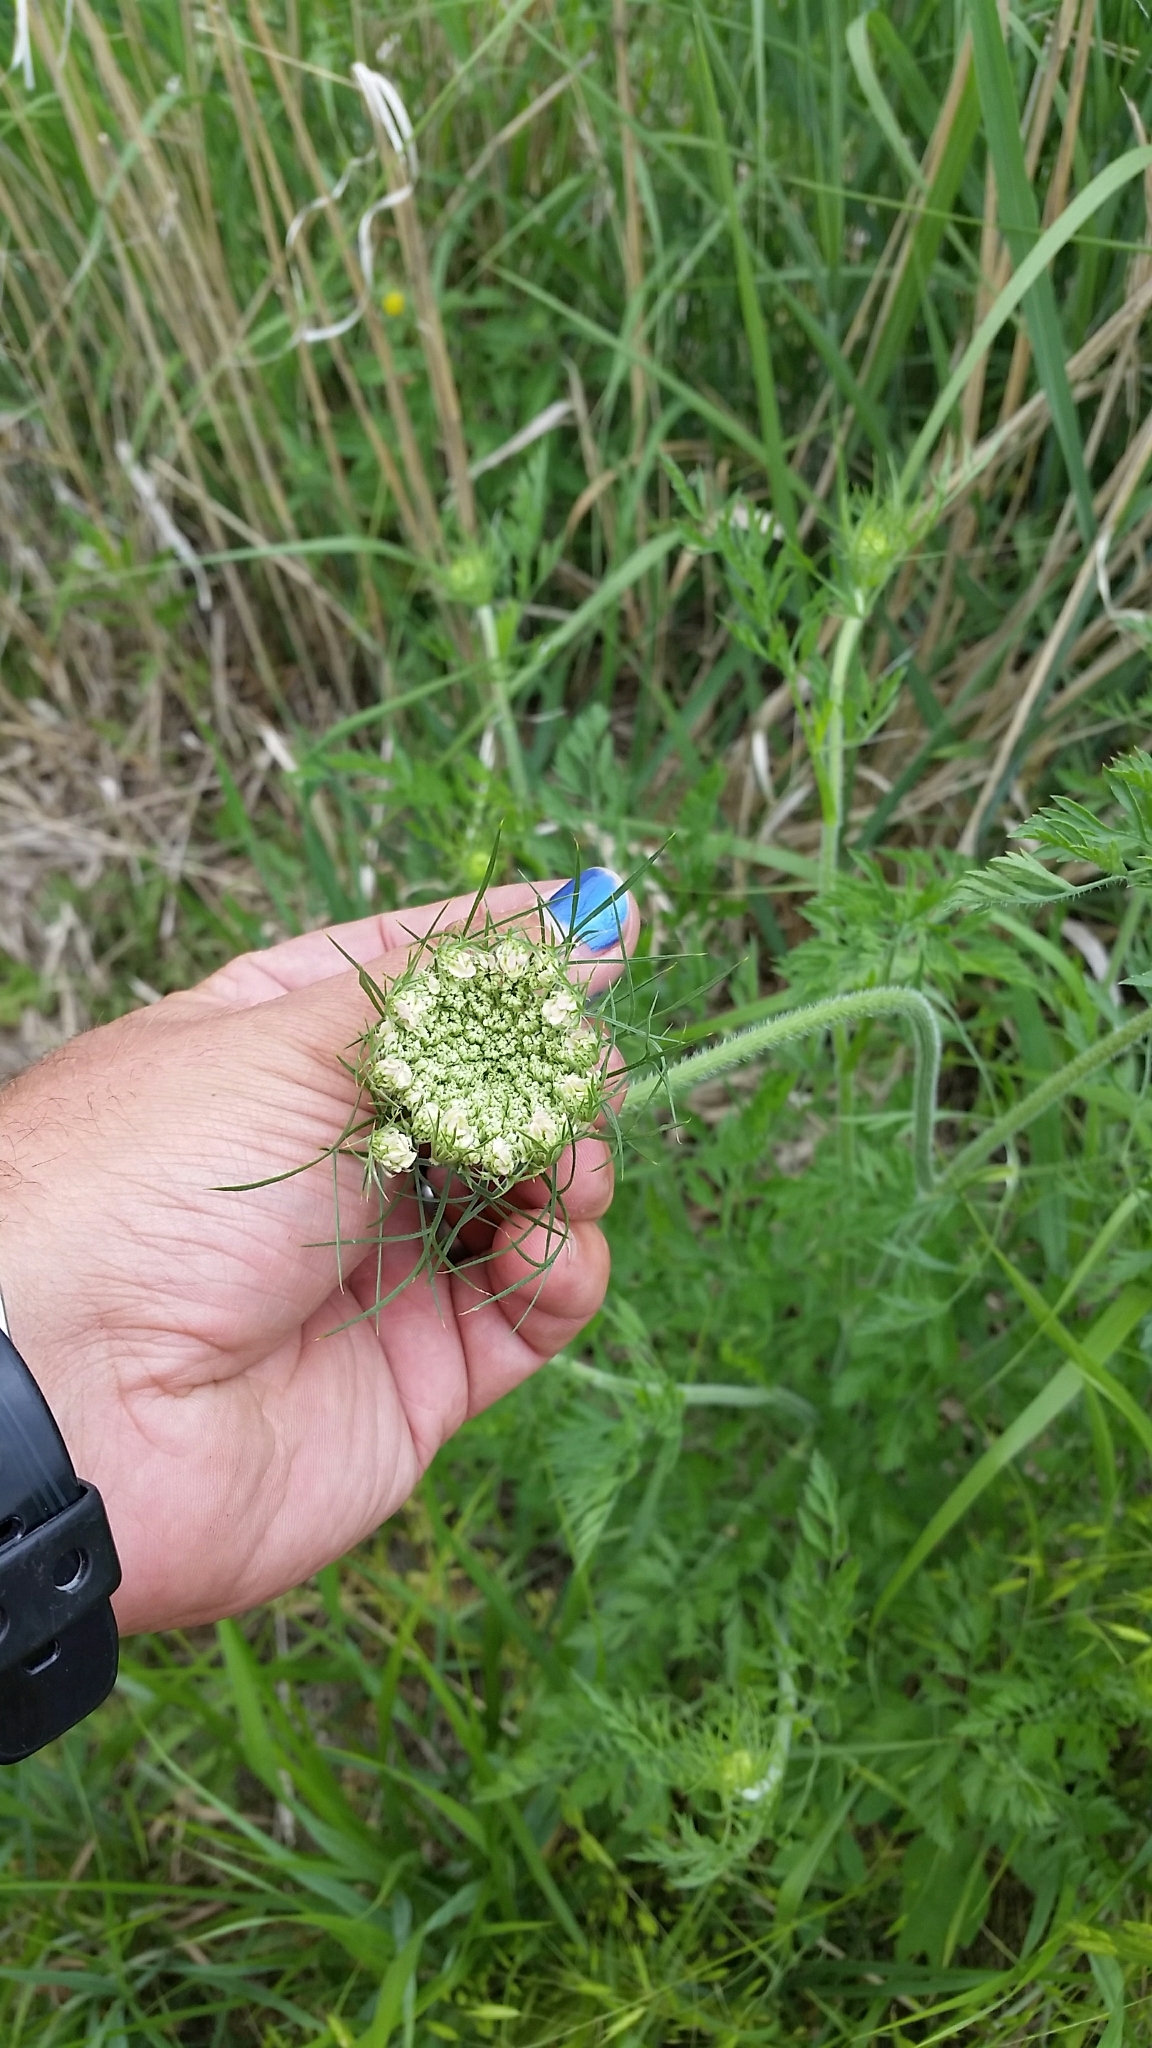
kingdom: Plantae
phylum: Tracheophyta
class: Magnoliopsida
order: Apiales
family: Apiaceae
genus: Daucus
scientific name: Daucus carota
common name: Wild carrot
